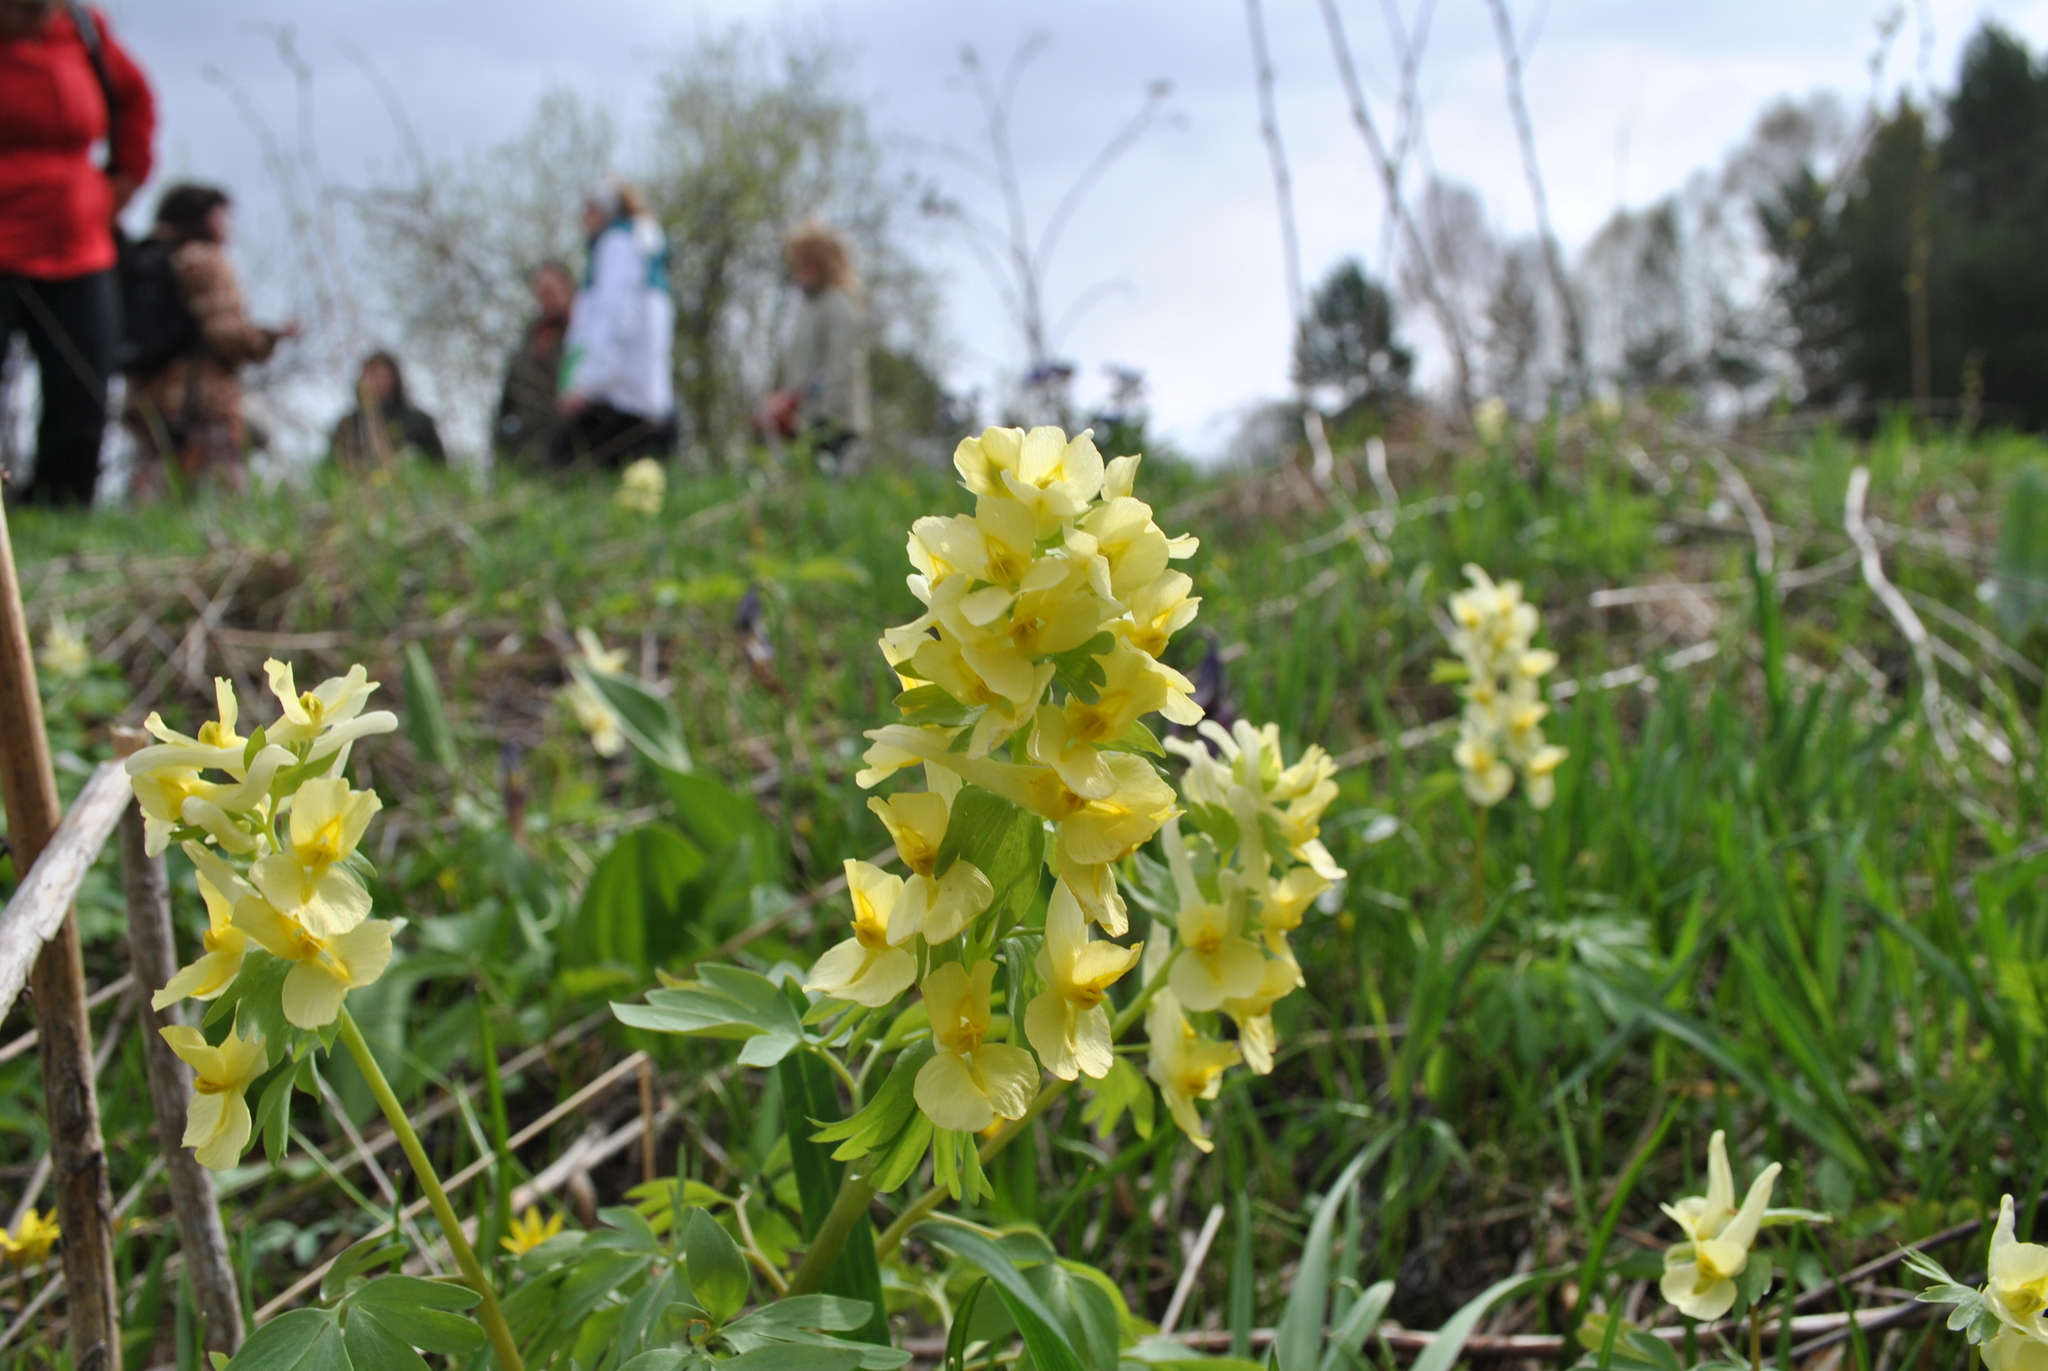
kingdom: Plantae
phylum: Tracheophyta
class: Magnoliopsida
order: Ranunculales
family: Papaveraceae
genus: Corydalis
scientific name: Corydalis bracteata
